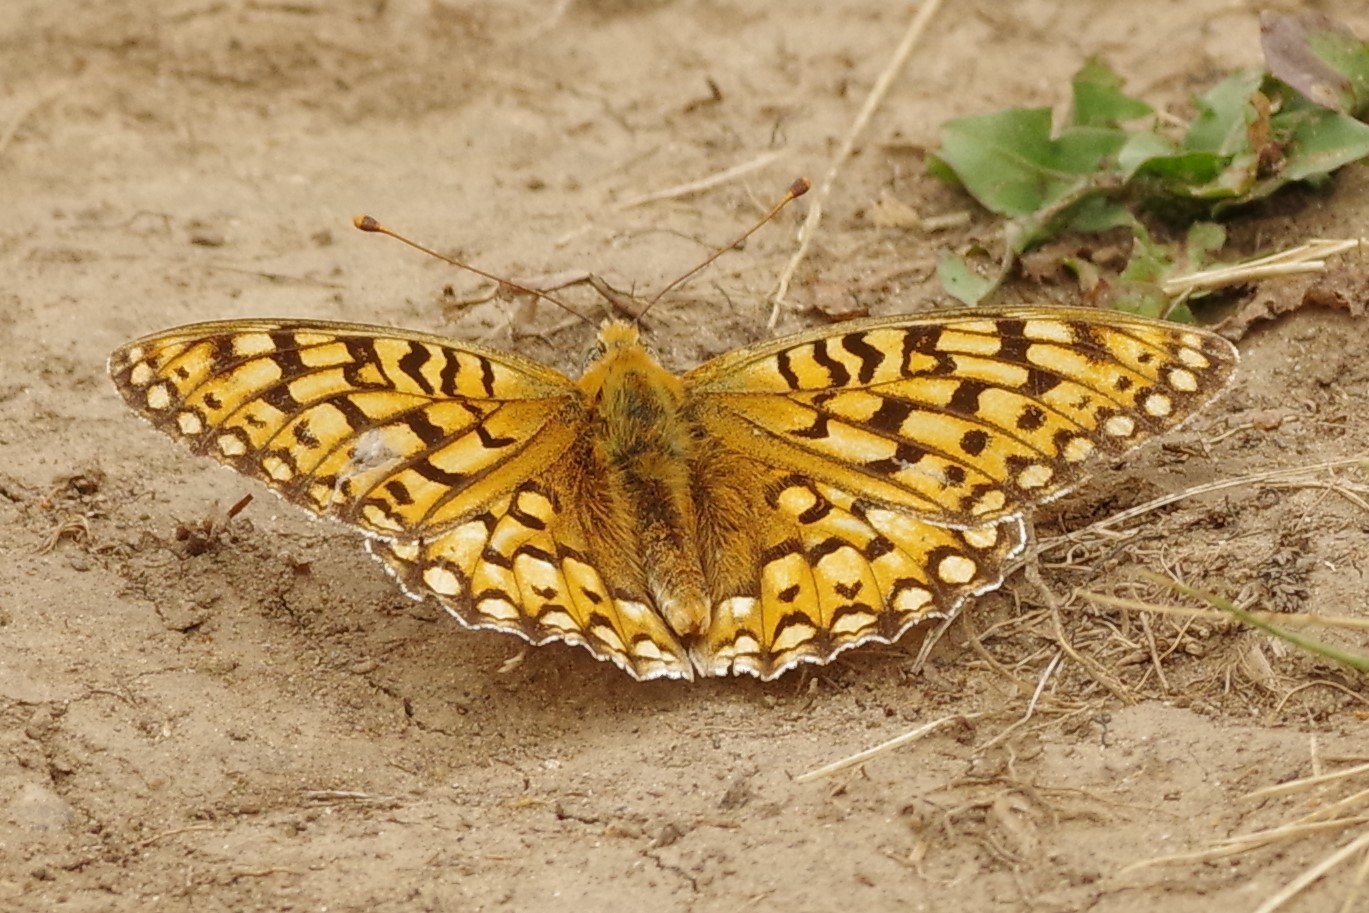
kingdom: Animalia
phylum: Arthropoda
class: Insecta
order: Lepidoptera
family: Nymphalidae
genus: Speyeria
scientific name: Speyeria callippe
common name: Callippe fritillary
